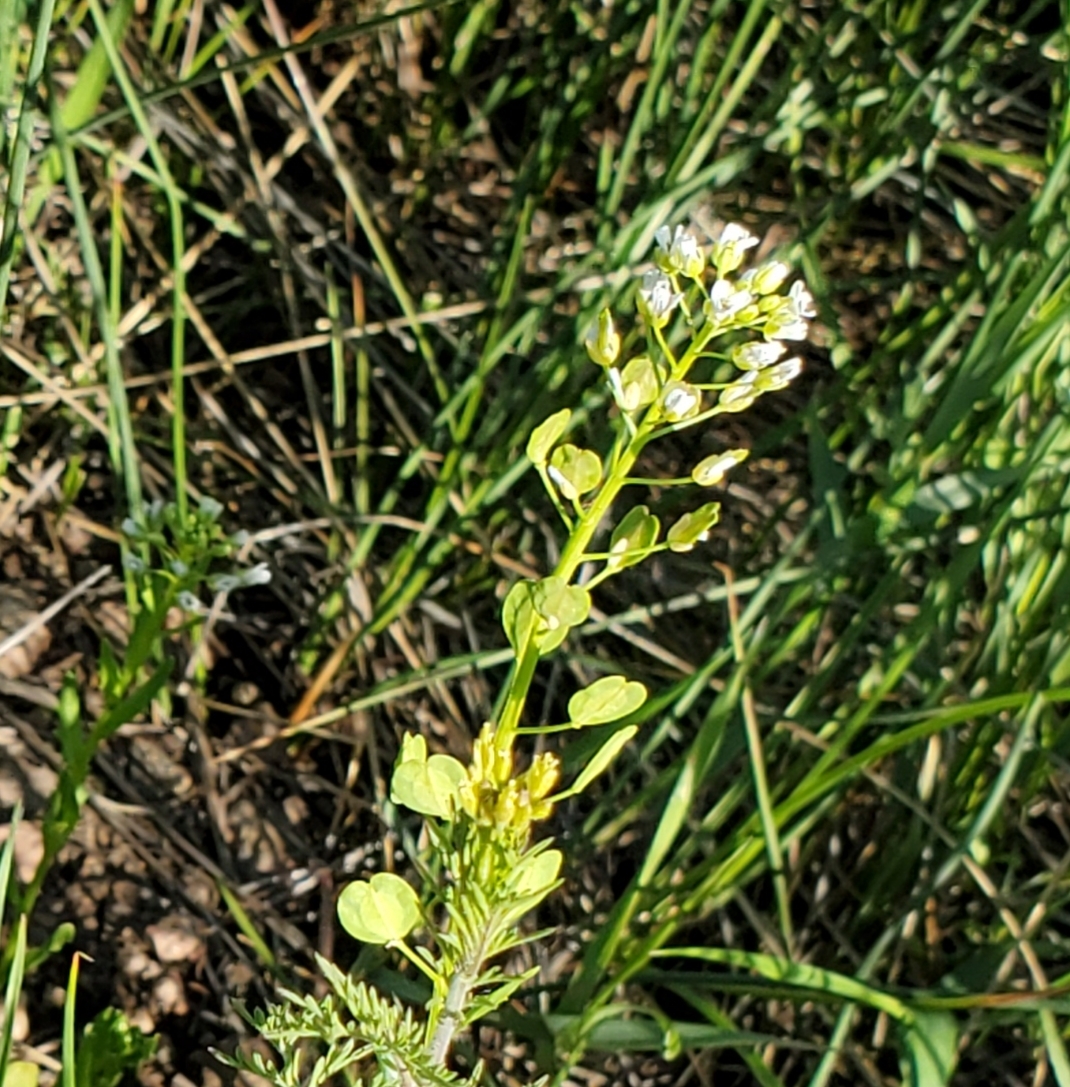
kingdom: Plantae
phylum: Tracheophyta
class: Magnoliopsida
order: Brassicales
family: Brassicaceae
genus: Thlaspi
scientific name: Thlaspi arvense
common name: Field pennycress
